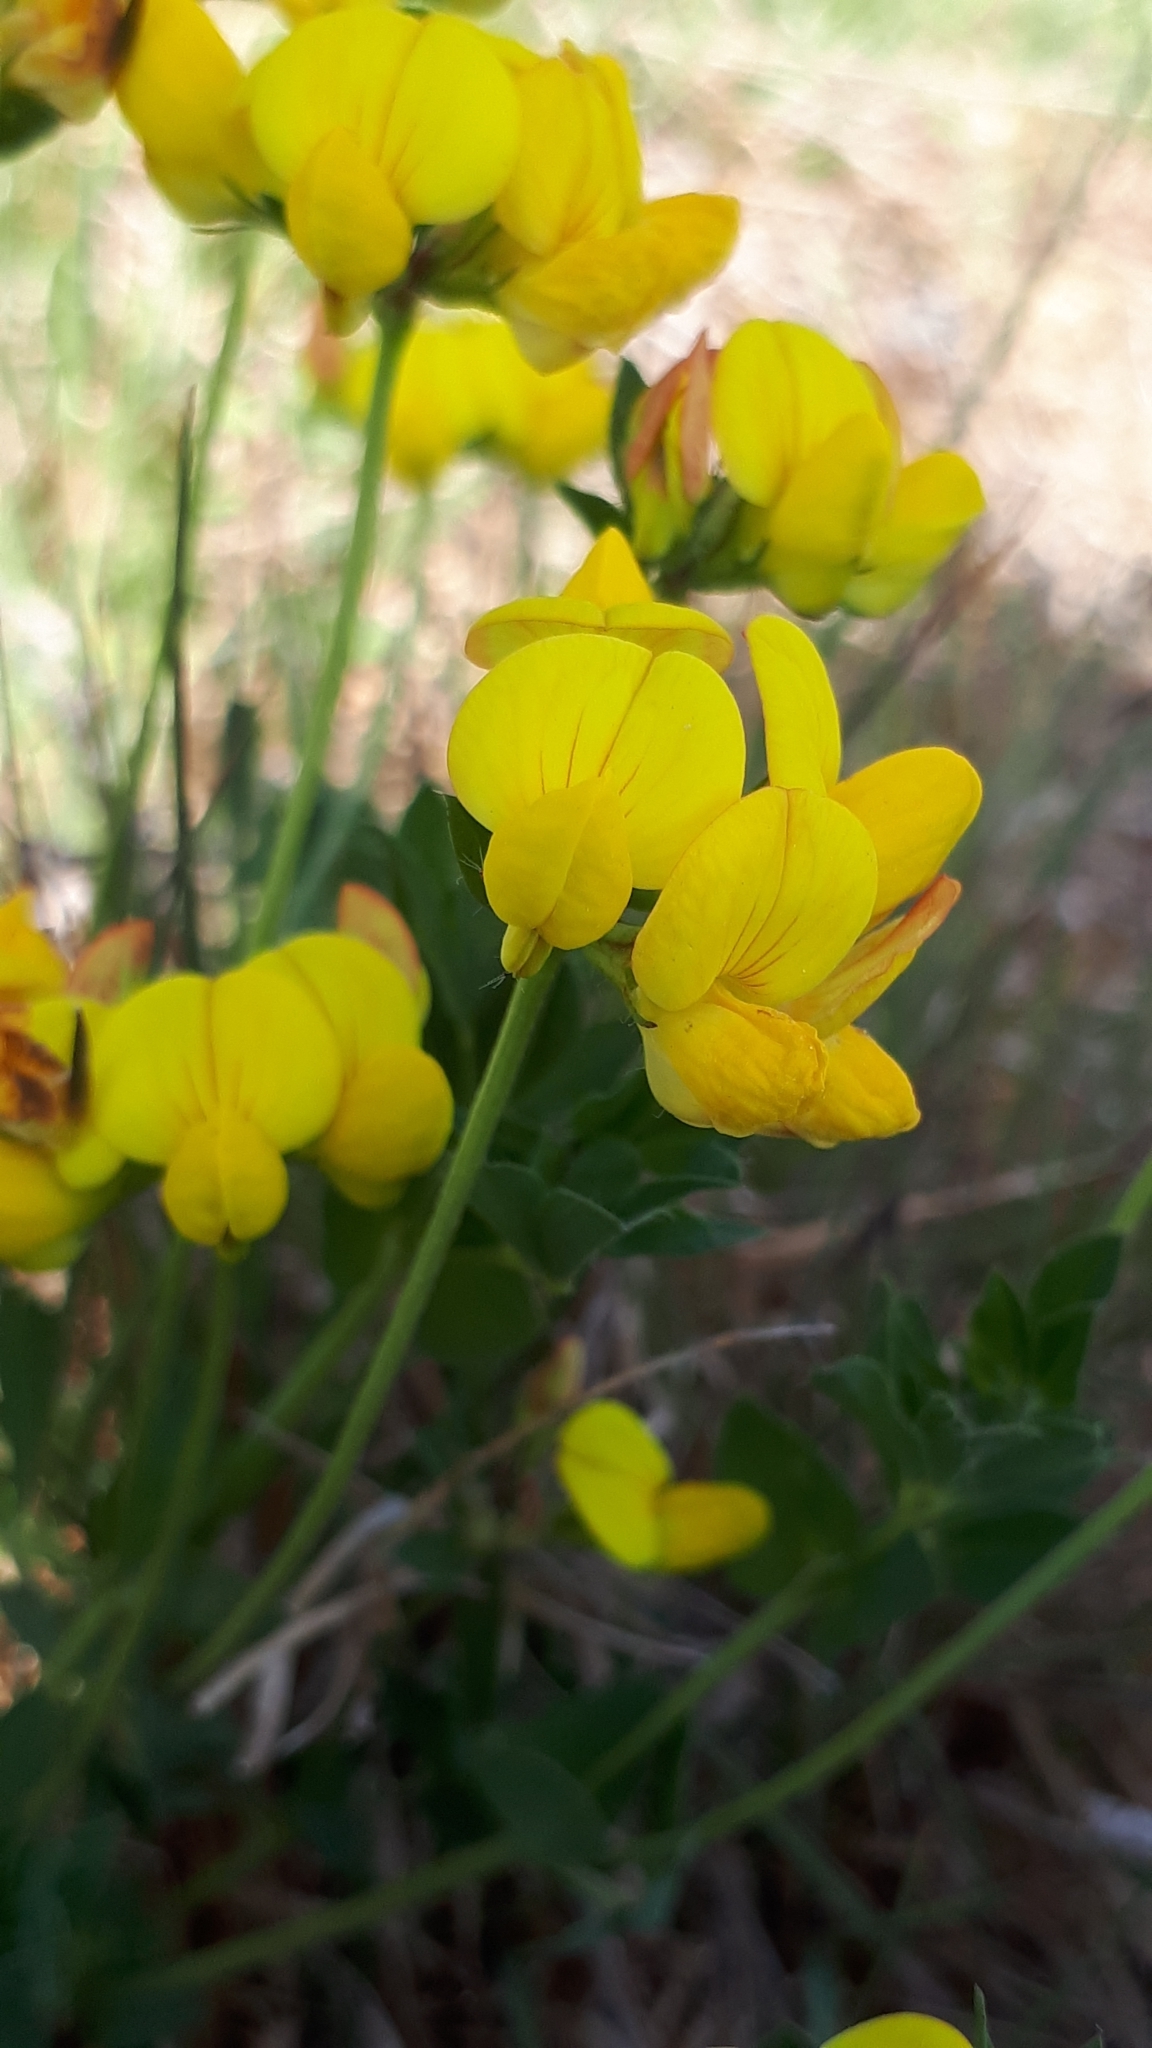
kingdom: Plantae
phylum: Tracheophyta
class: Magnoliopsida
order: Fabales
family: Fabaceae
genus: Lotus
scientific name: Lotus corniculatus
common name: Common bird's-foot-trefoil
